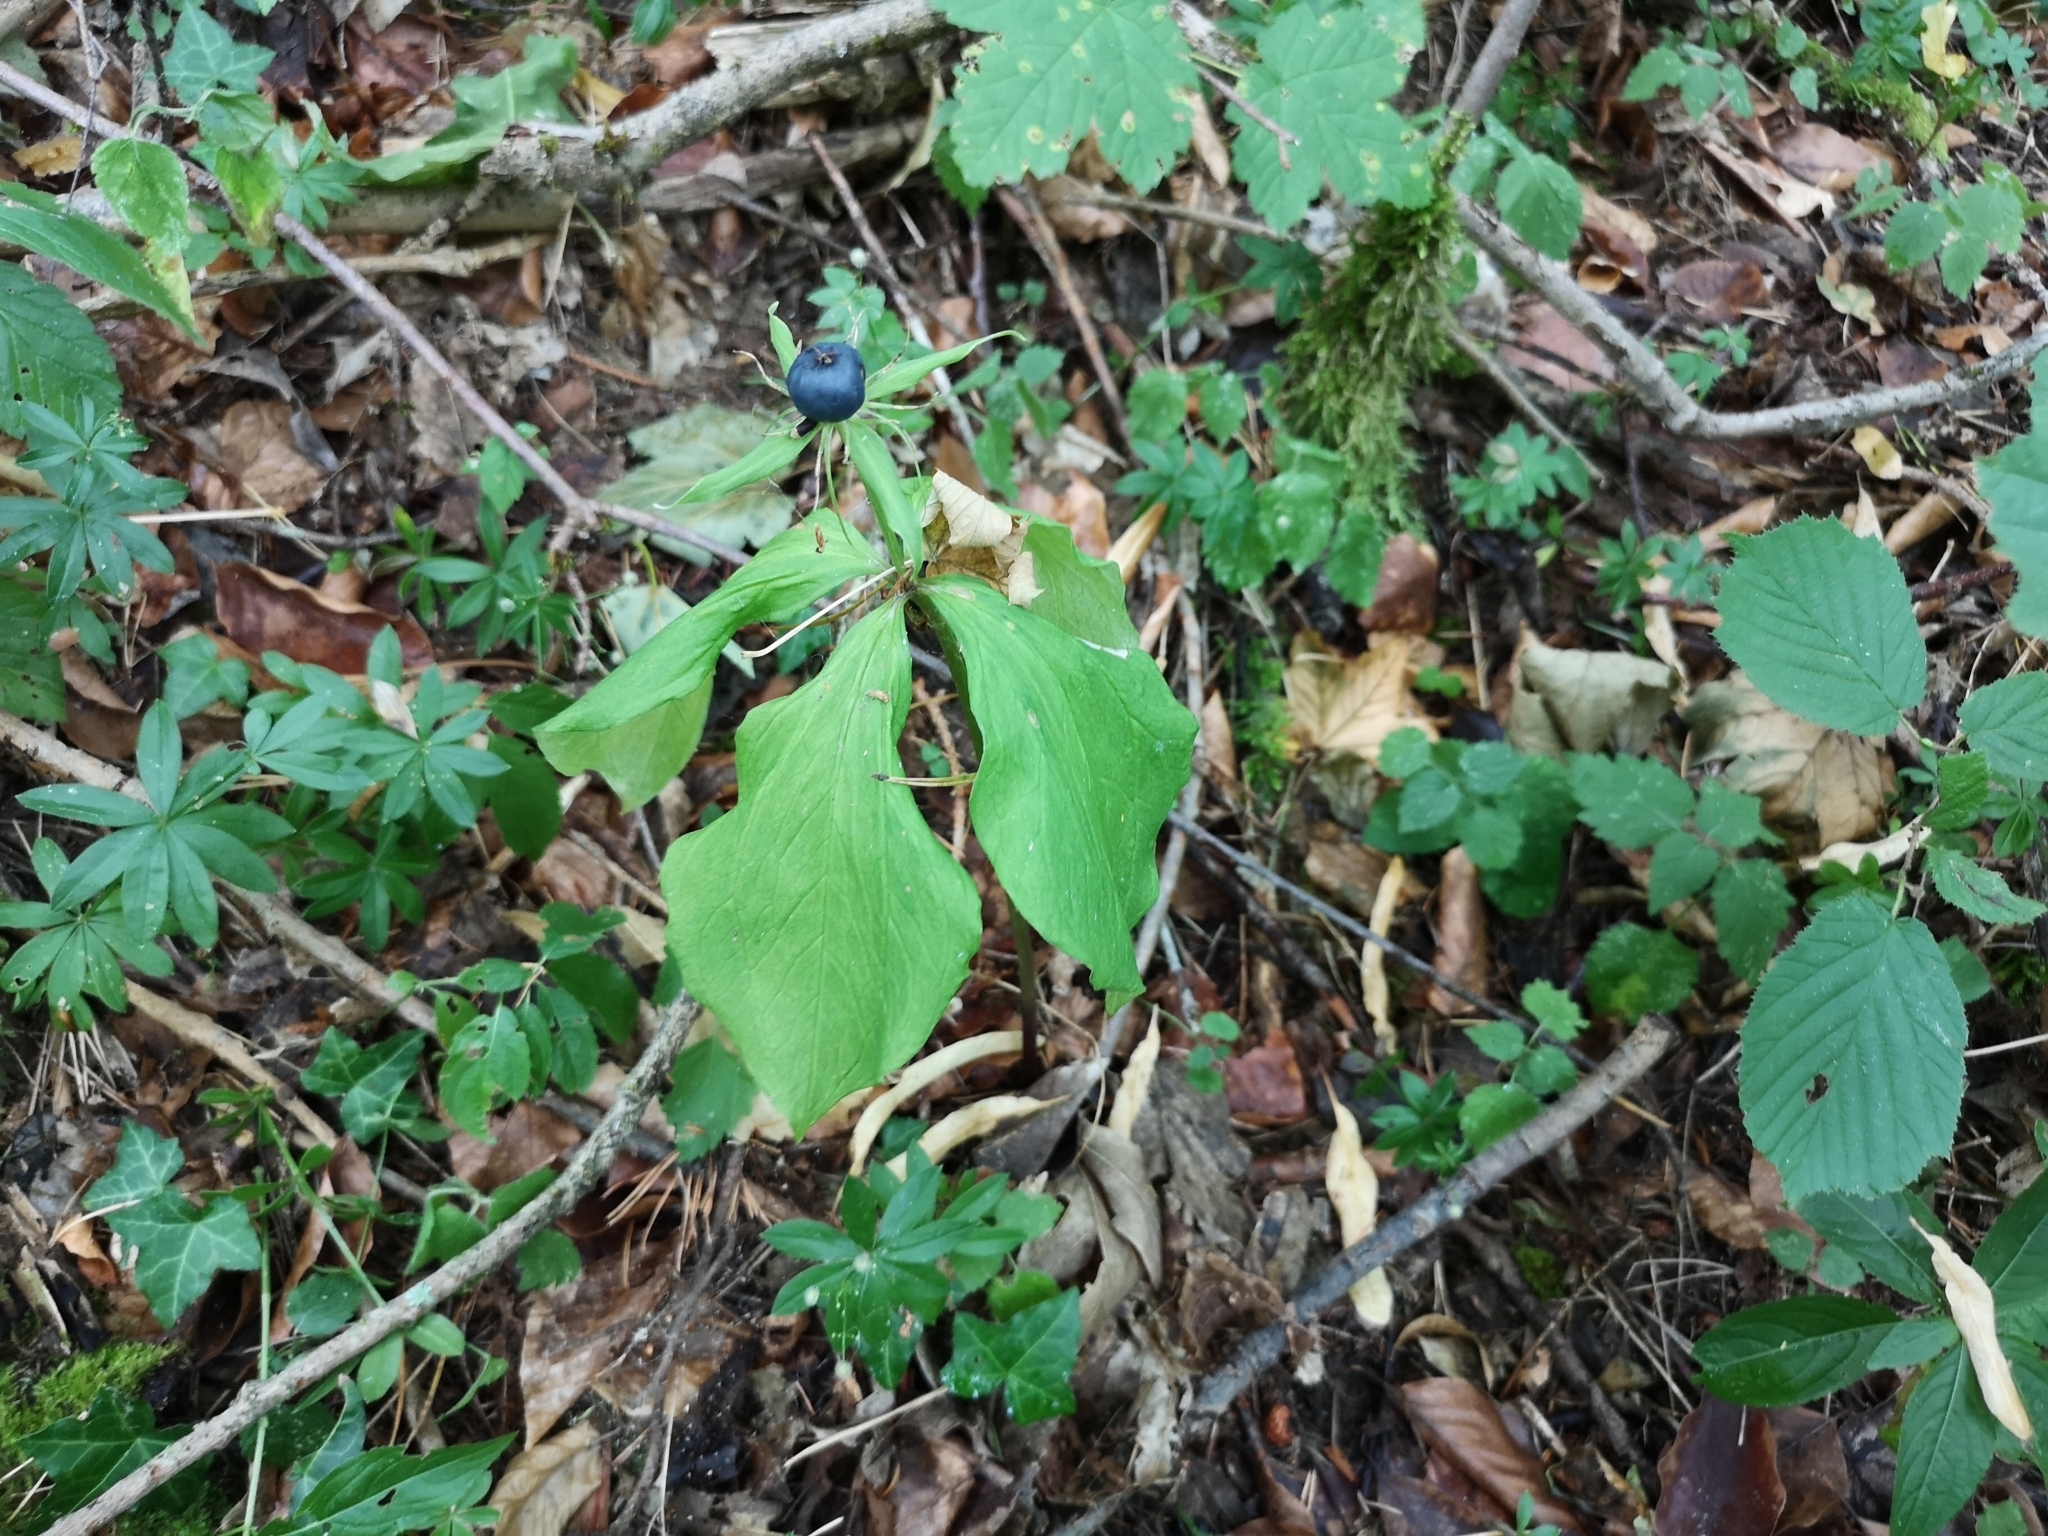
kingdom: Plantae
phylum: Tracheophyta
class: Liliopsida
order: Liliales
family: Melanthiaceae
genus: Paris
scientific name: Paris quadrifolia
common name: Herb-paris
